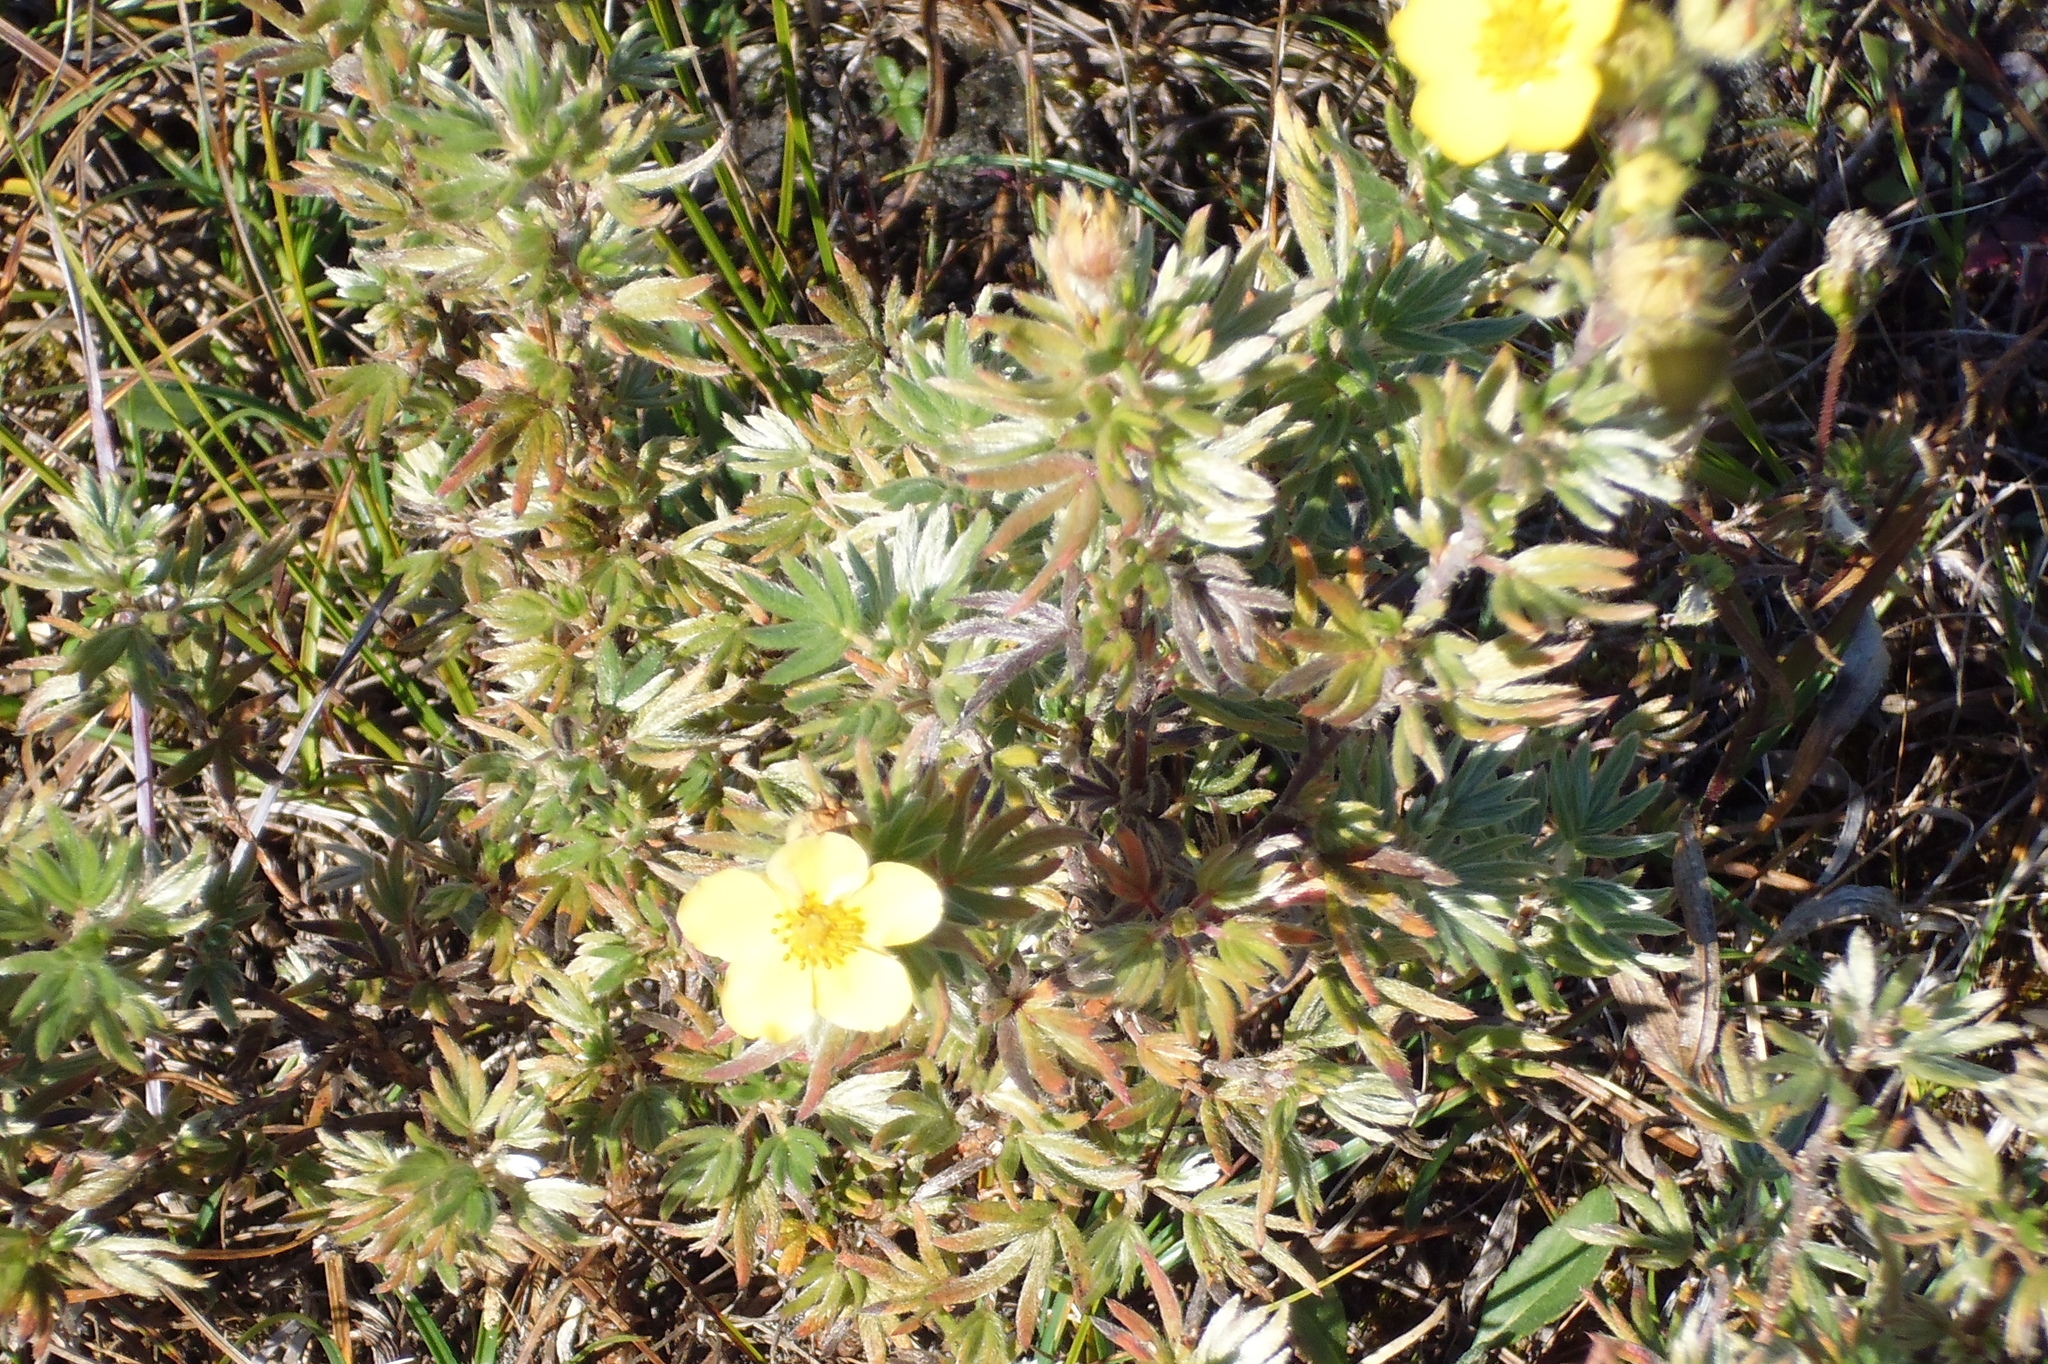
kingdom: Plantae
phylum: Tracheophyta
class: Magnoliopsida
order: Rosales
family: Rosaceae
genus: Dasiphora
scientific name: Dasiphora fruticosa
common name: Shrubby cinquefoil
